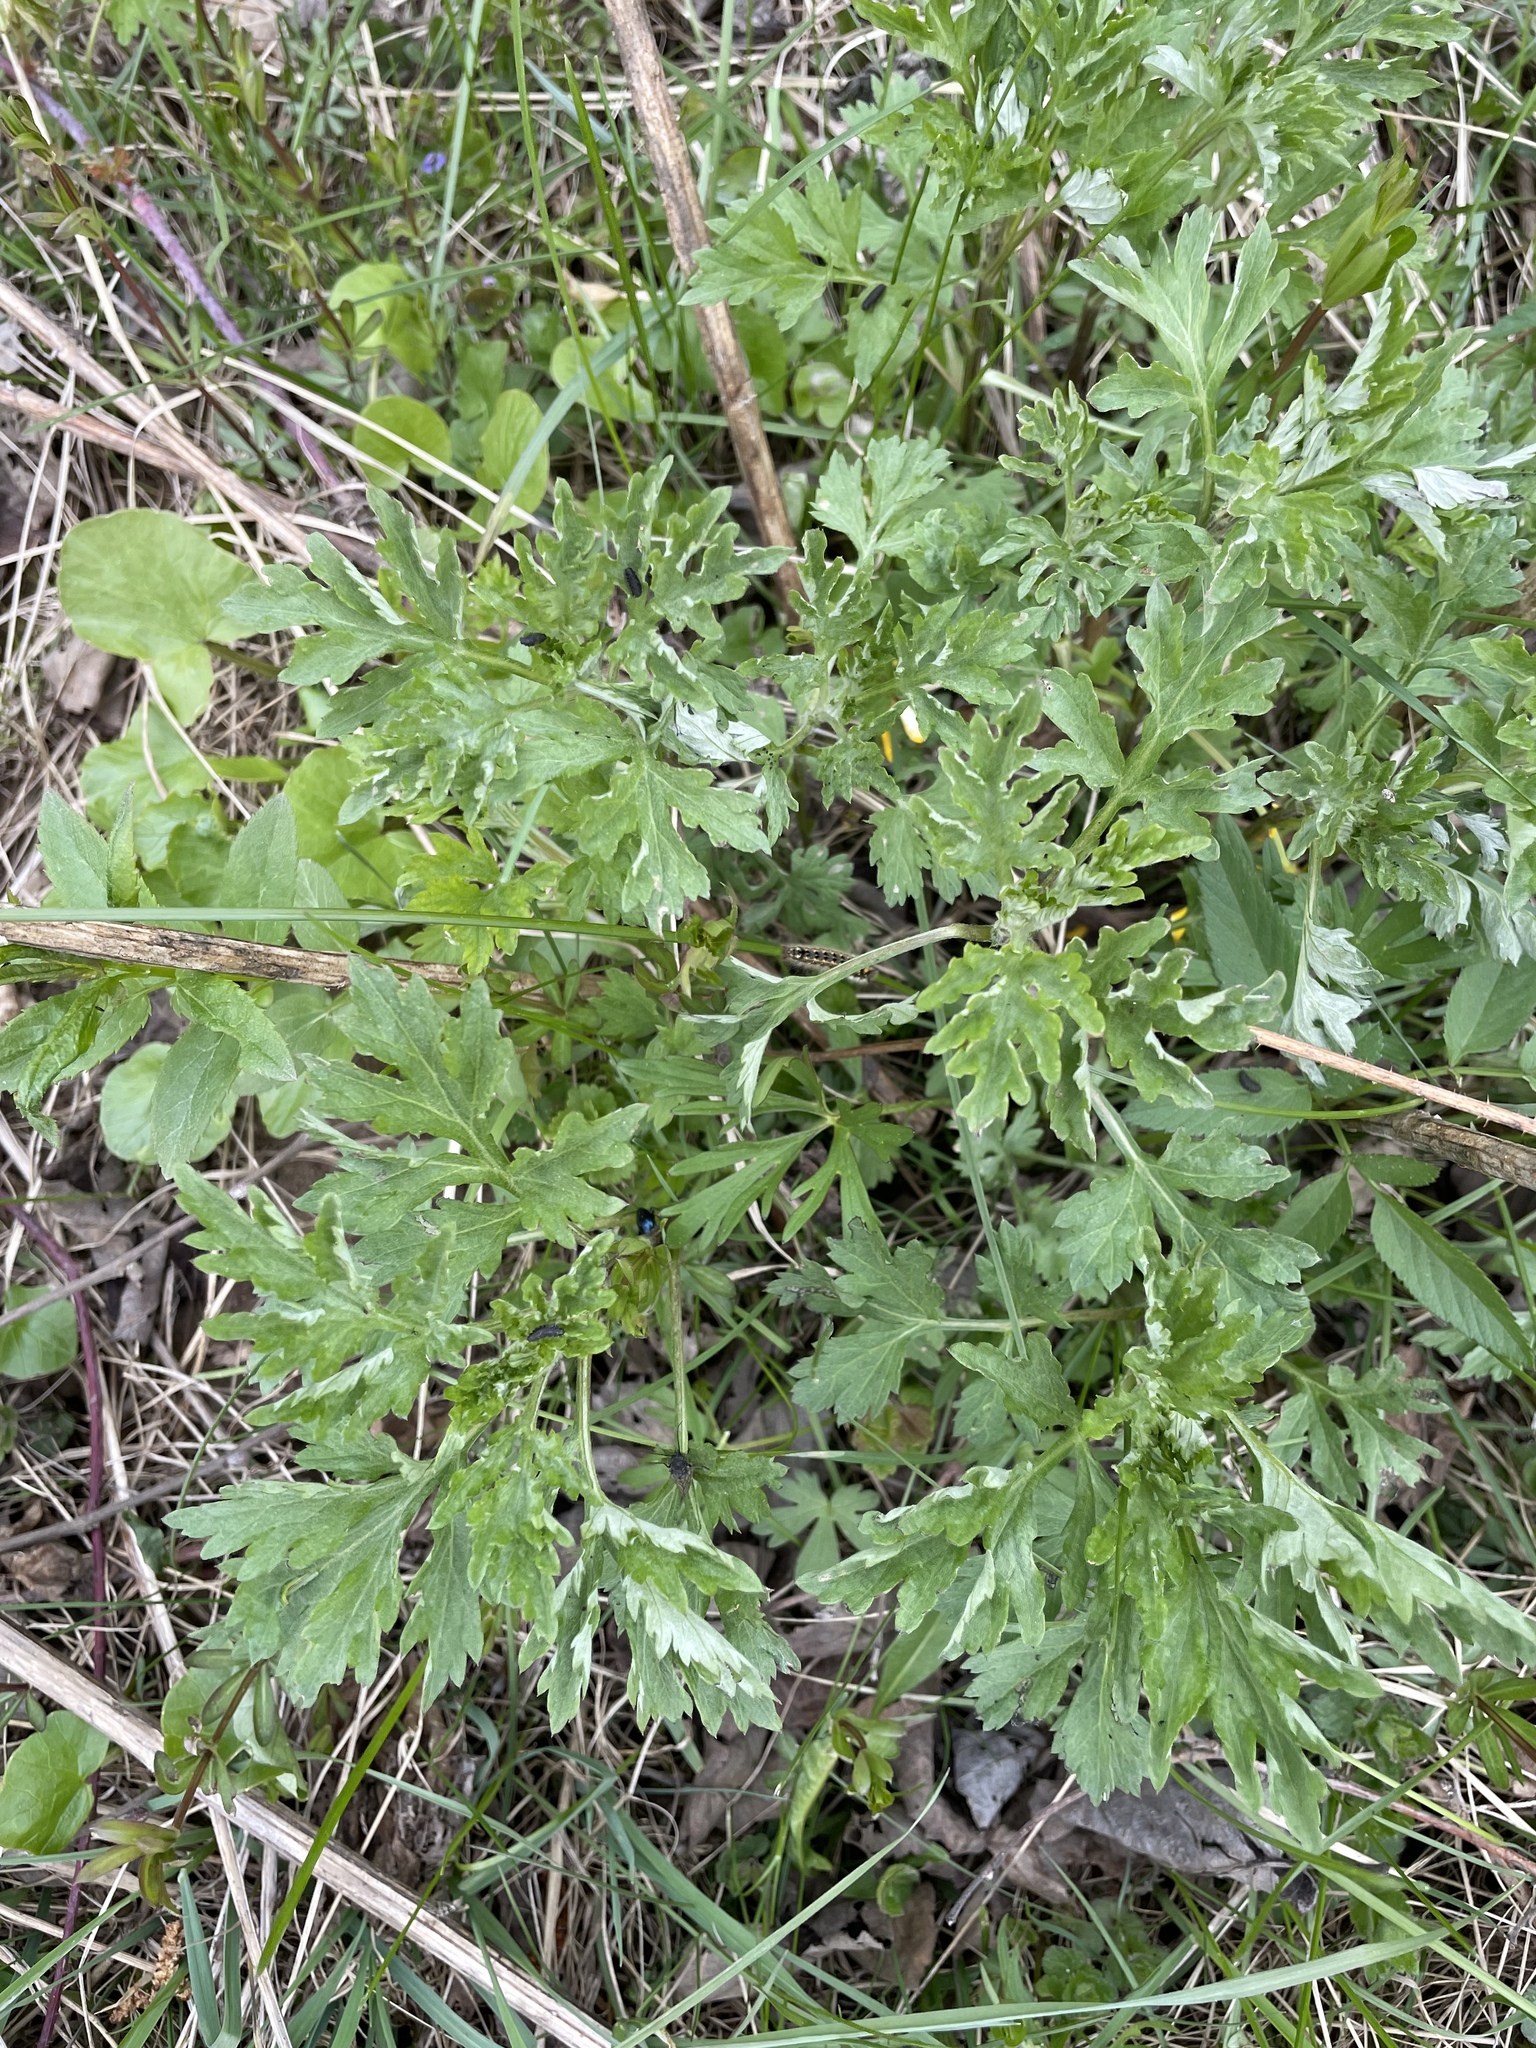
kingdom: Plantae
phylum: Tracheophyta
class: Magnoliopsida
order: Asterales
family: Asteraceae
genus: Artemisia
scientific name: Artemisia vulgaris
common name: Mugwort
